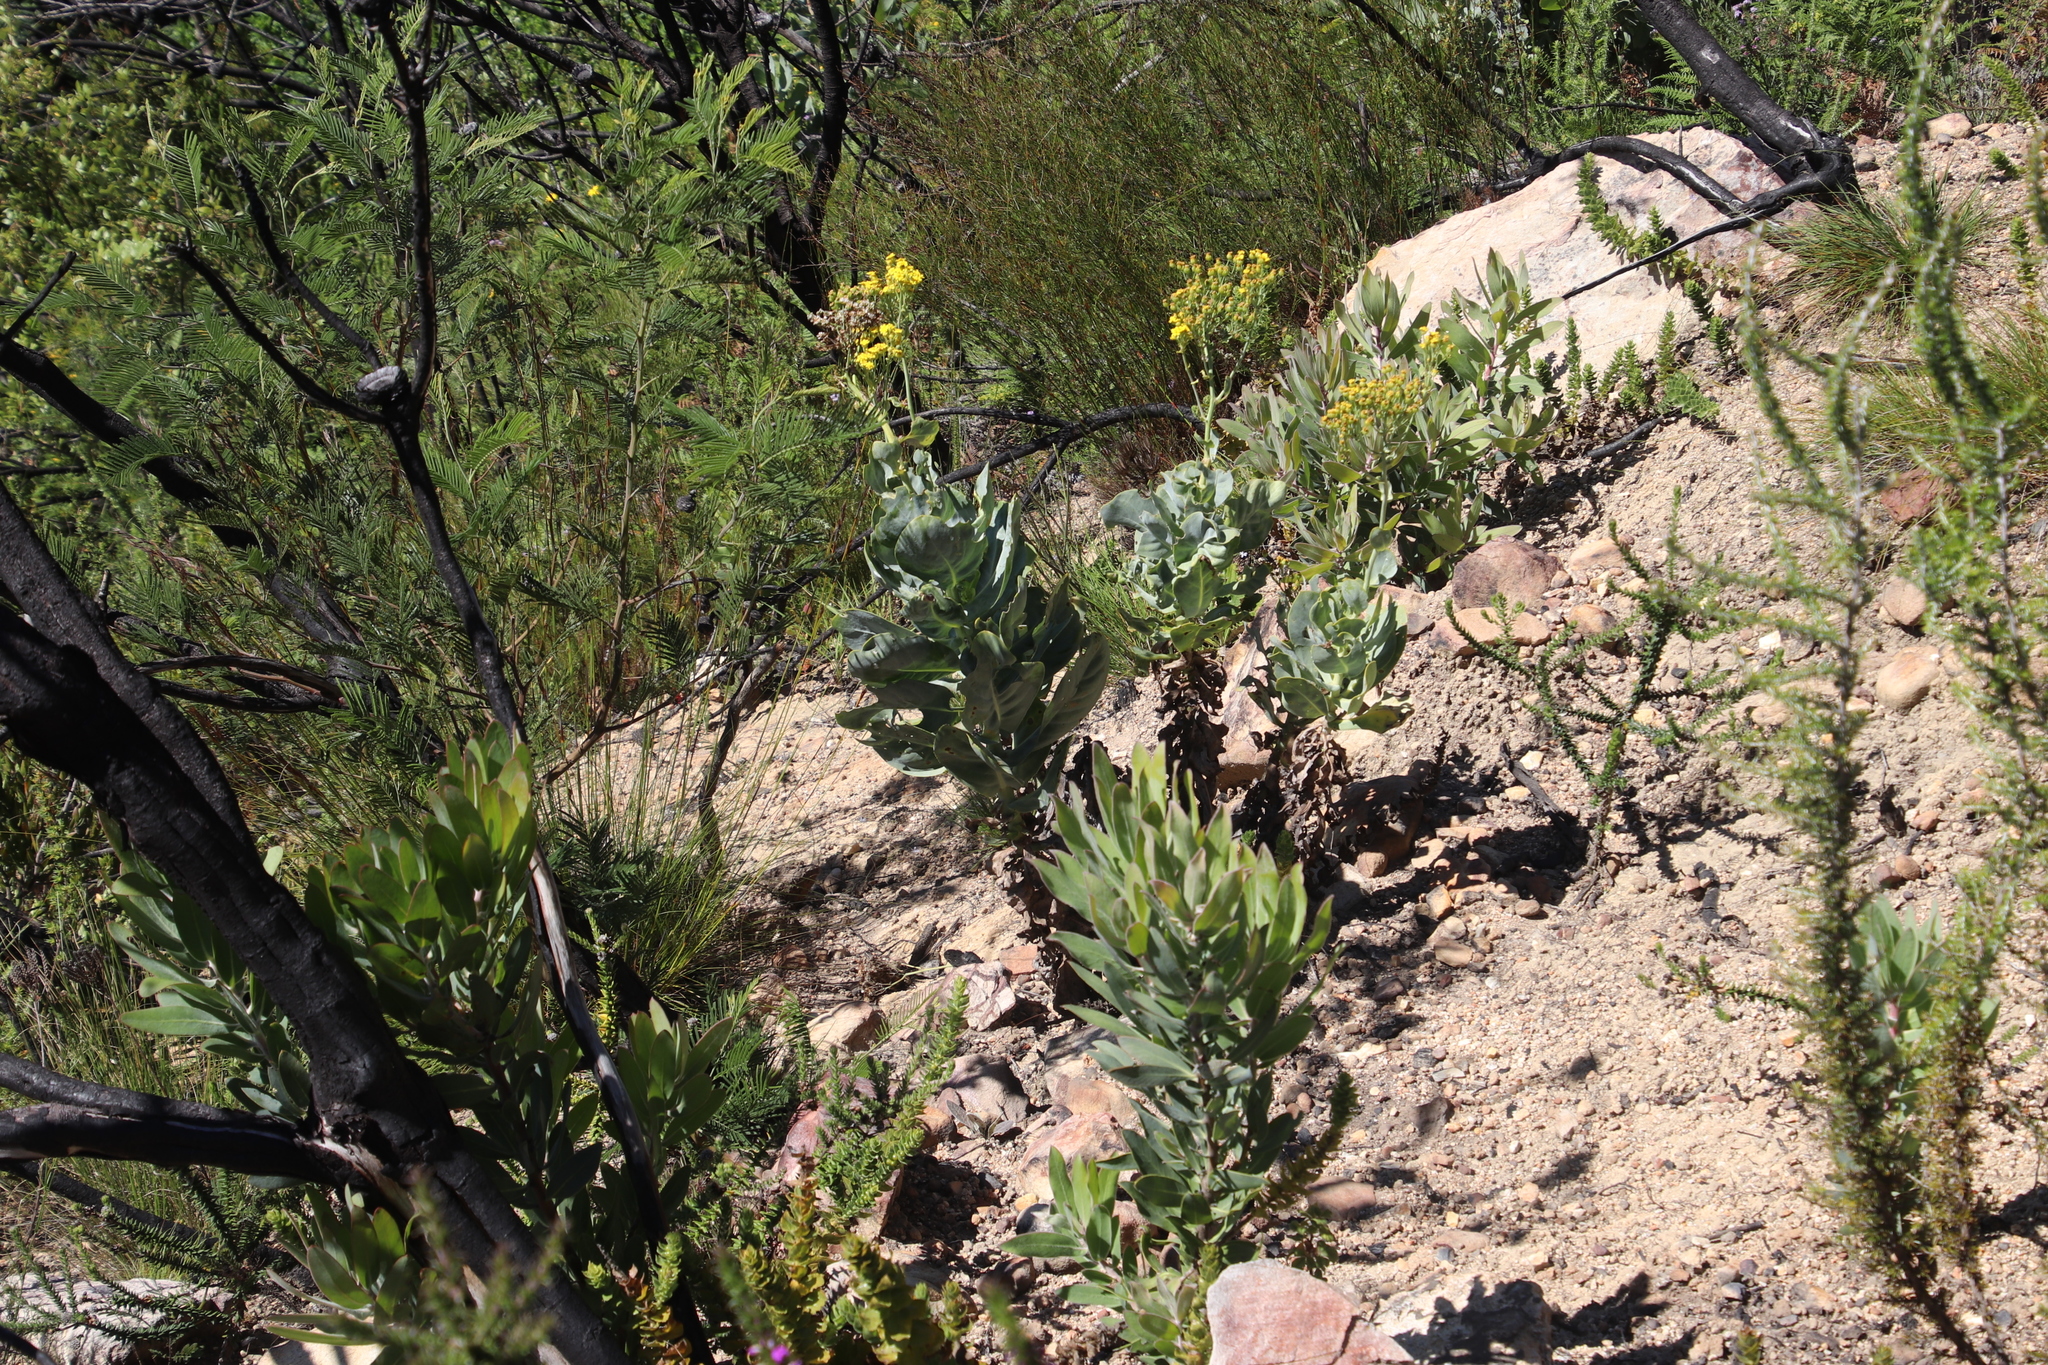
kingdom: Plantae
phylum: Tracheophyta
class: Magnoliopsida
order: Asterales
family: Asteraceae
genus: Othonna
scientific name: Othonna parviflora
